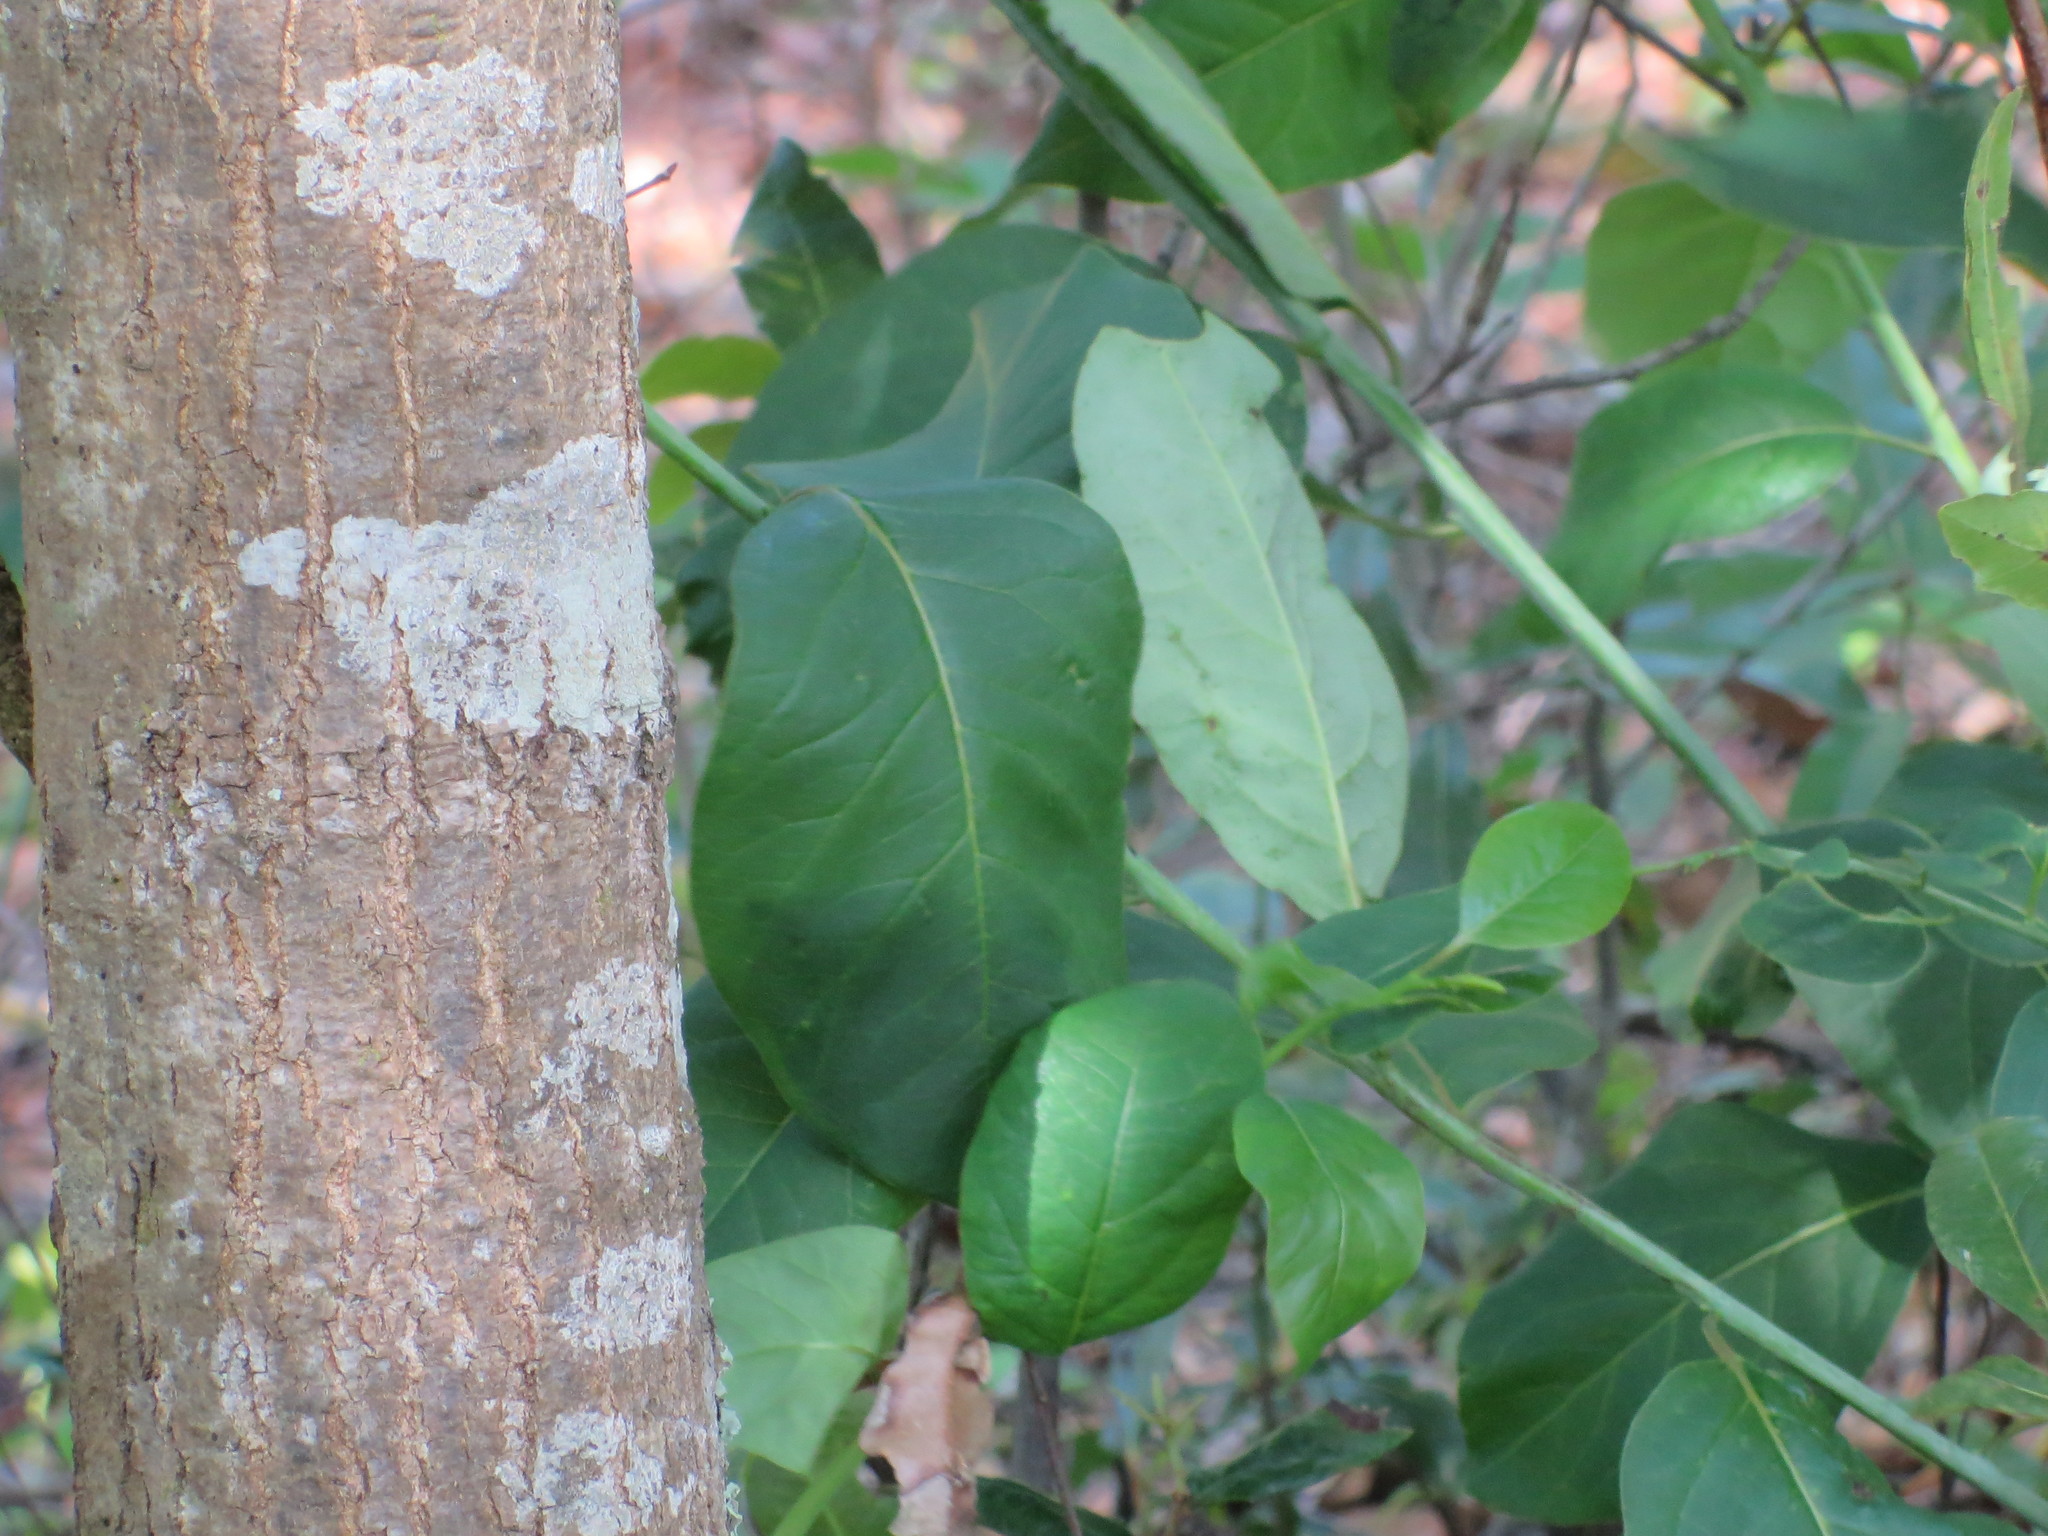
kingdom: Plantae
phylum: Tracheophyta
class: Magnoliopsida
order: Ericales
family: Ebenaceae
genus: Diospyros
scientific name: Diospyros virginiana
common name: Persimmon
